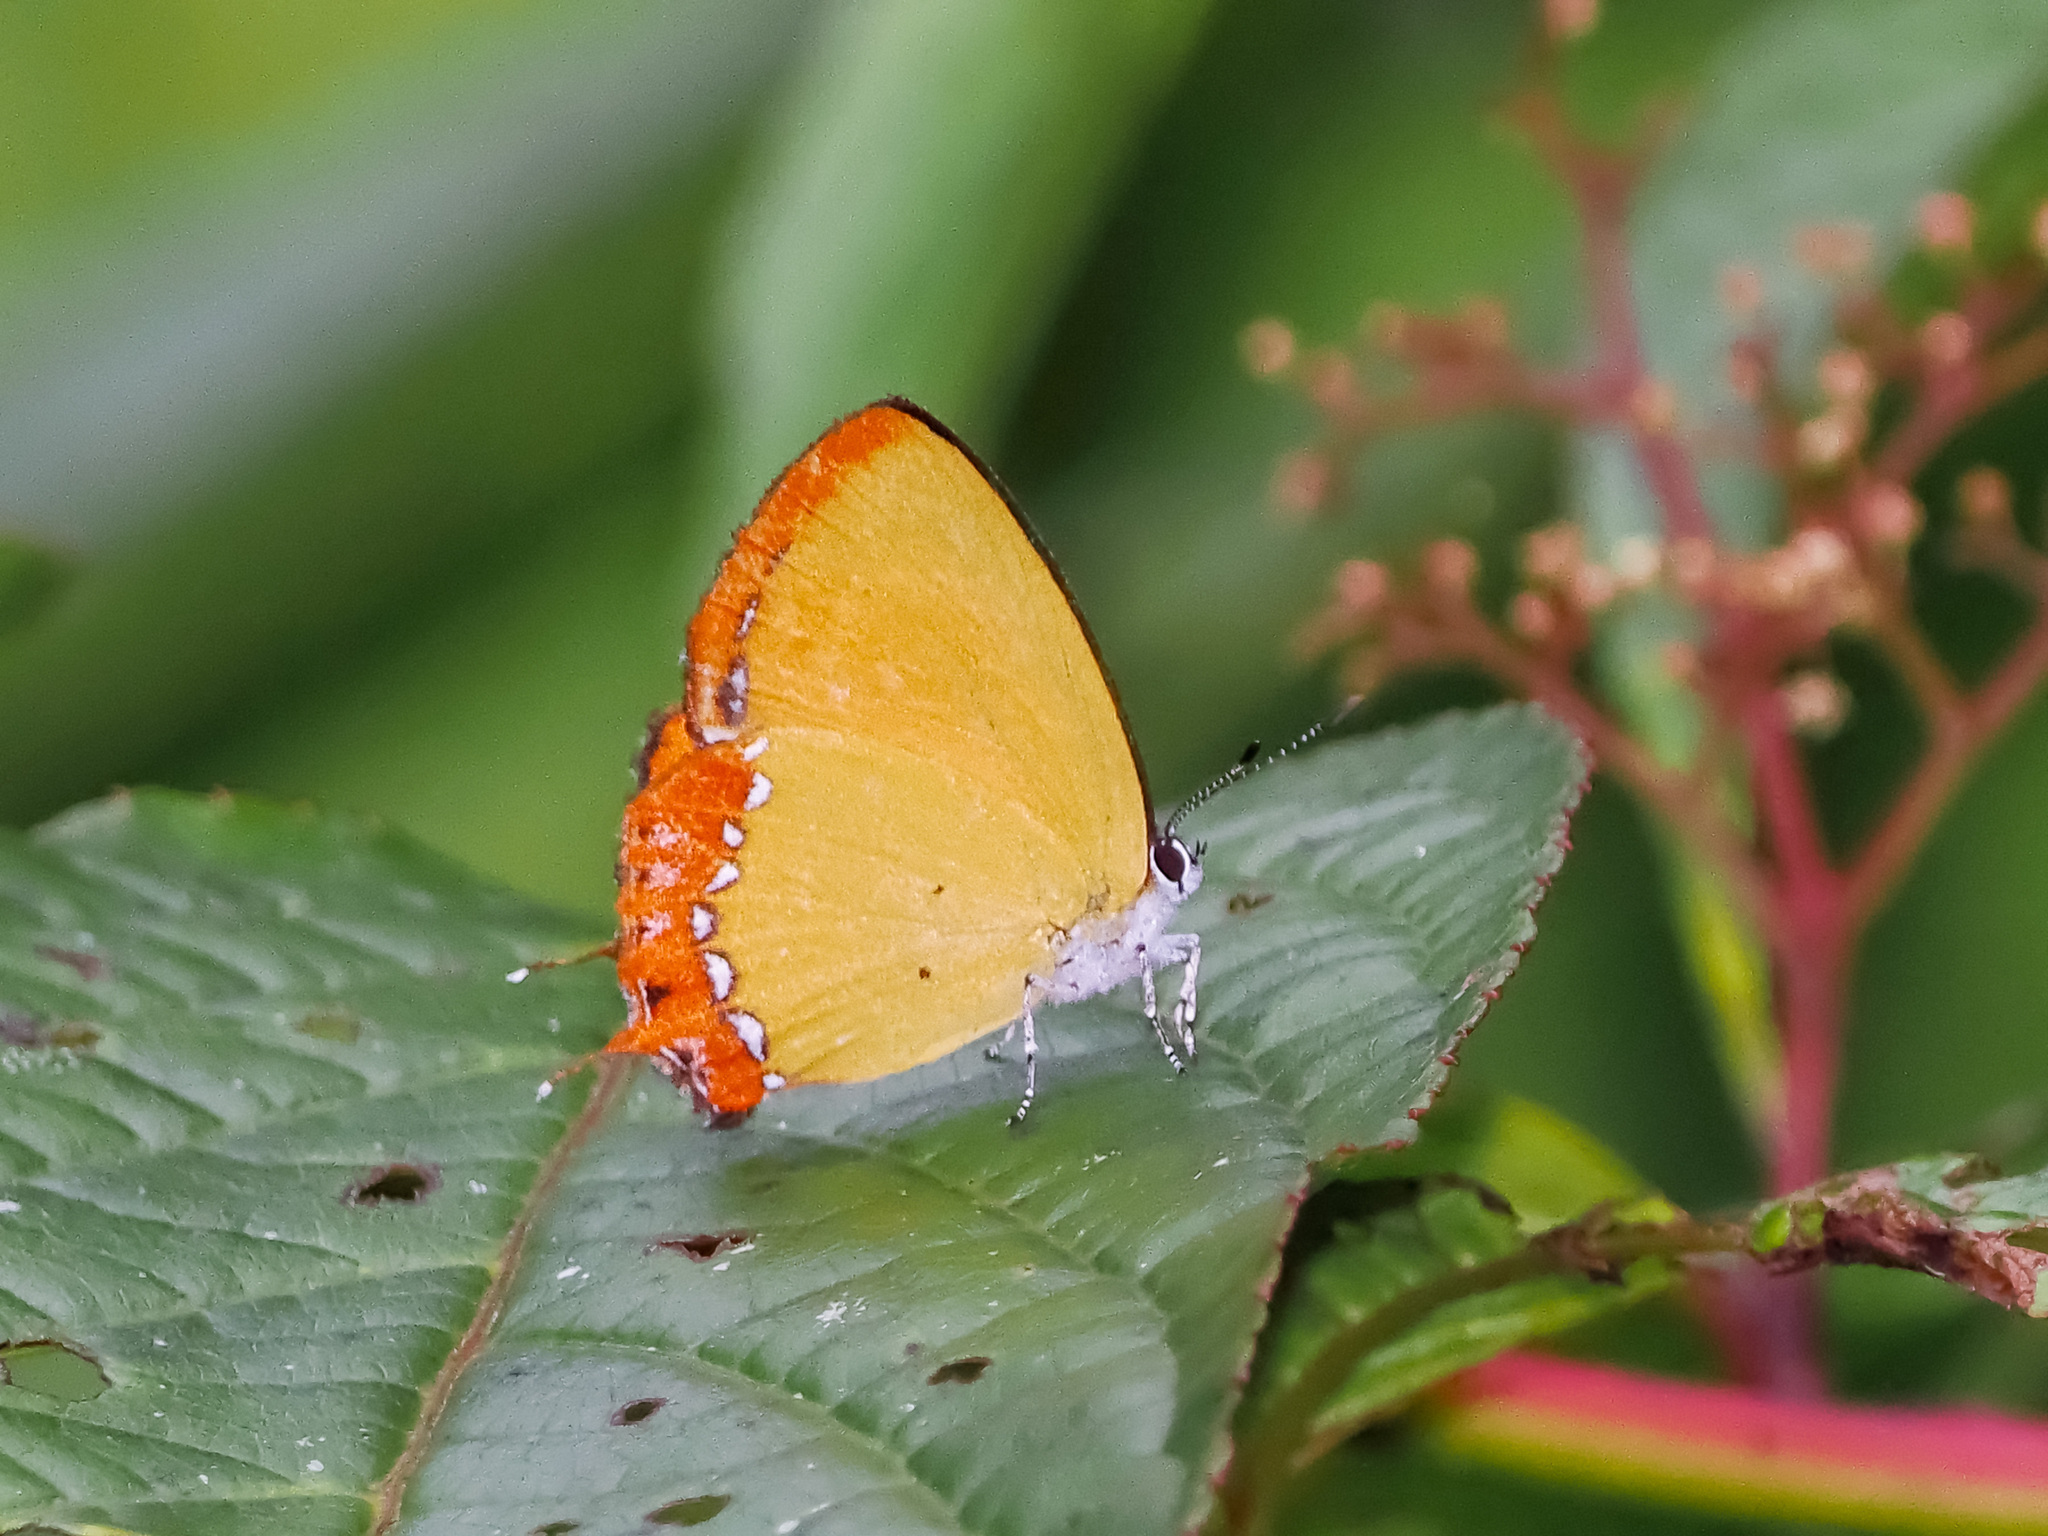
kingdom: Animalia
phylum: Arthropoda
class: Insecta
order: Lepidoptera
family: Lycaenidae
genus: Heliophorus
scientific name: Heliophorus ila
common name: Restricted purple sapphire
